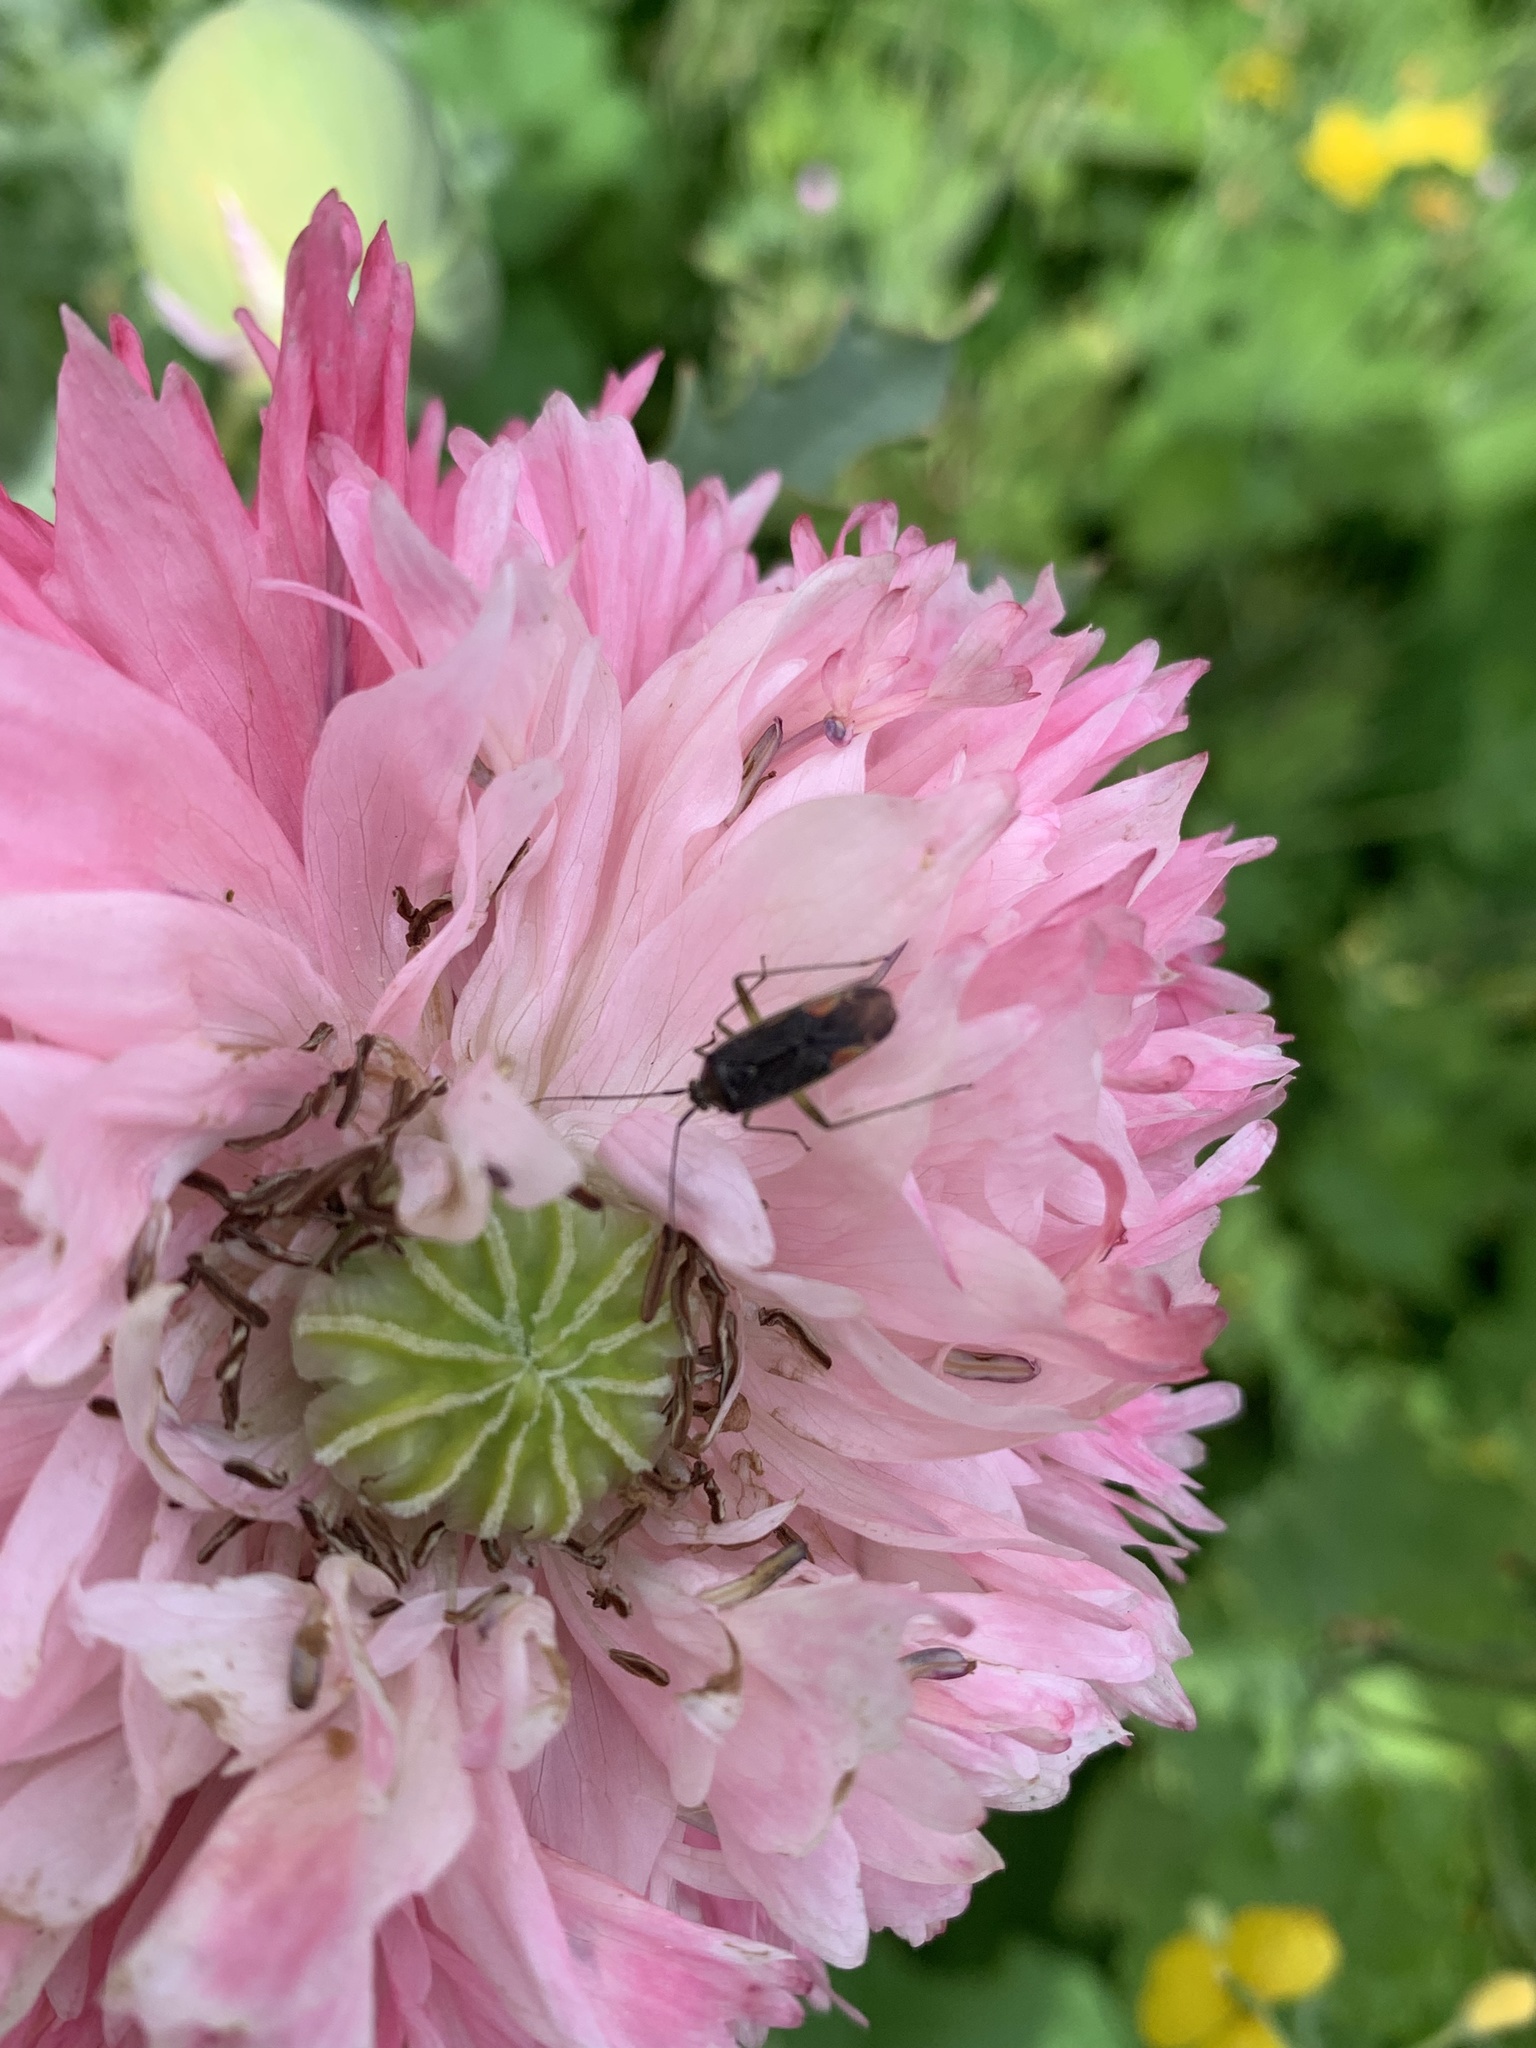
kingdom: Animalia
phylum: Arthropoda
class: Insecta
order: Hemiptera
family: Miridae
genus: Closterotomus
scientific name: Closterotomus trivialis
